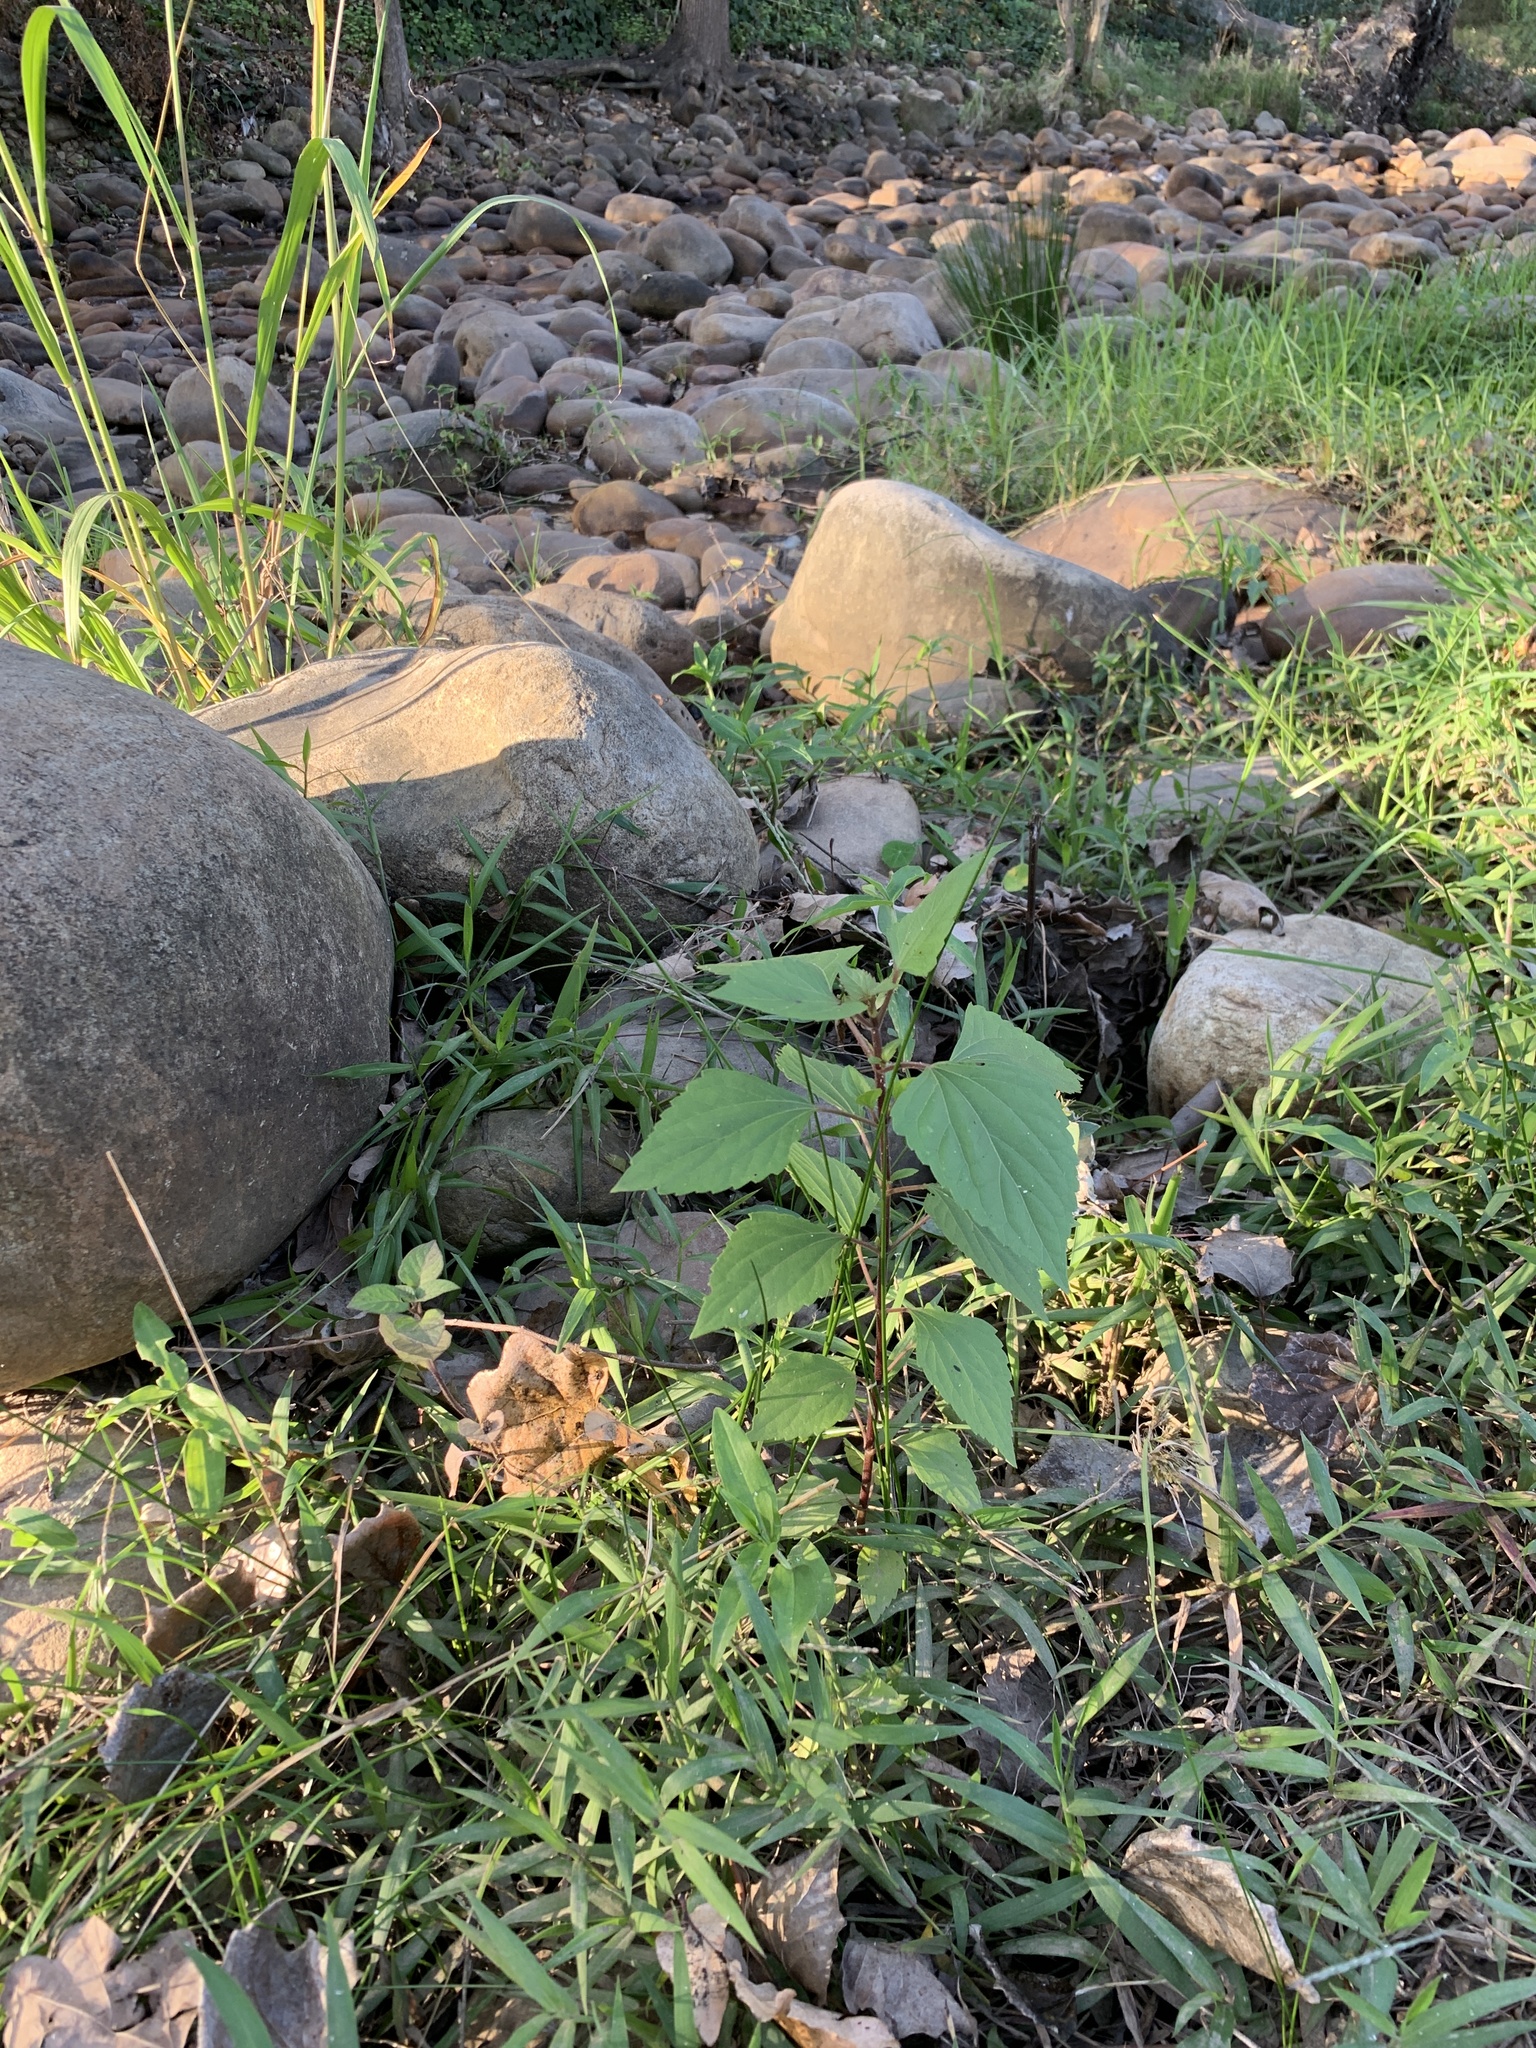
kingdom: Plantae
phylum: Tracheophyta
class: Magnoliopsida
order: Asterales
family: Asteraceae
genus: Ageratina
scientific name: Ageratina adenophora
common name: Sticky snakeroot
